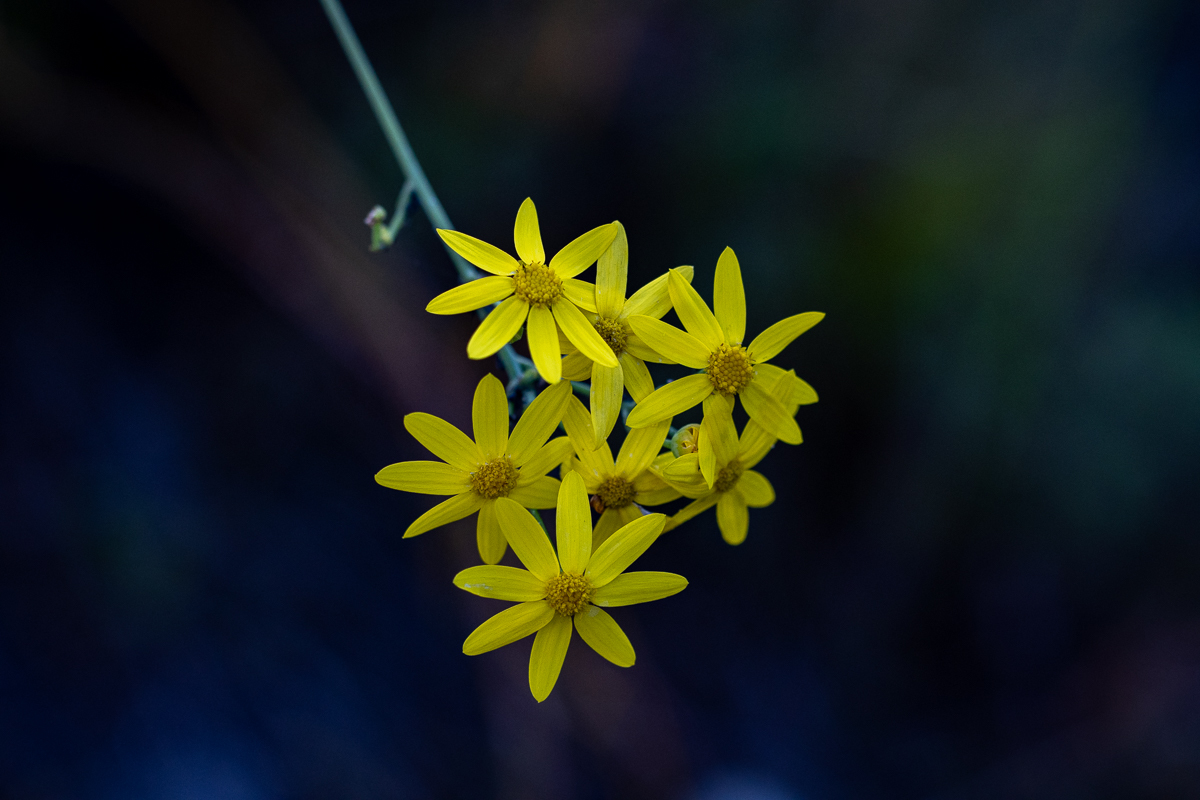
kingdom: Plantae
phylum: Tracheophyta
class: Magnoliopsida
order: Asterales
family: Asteraceae
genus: Othonna
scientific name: Othonna quinquedentata
